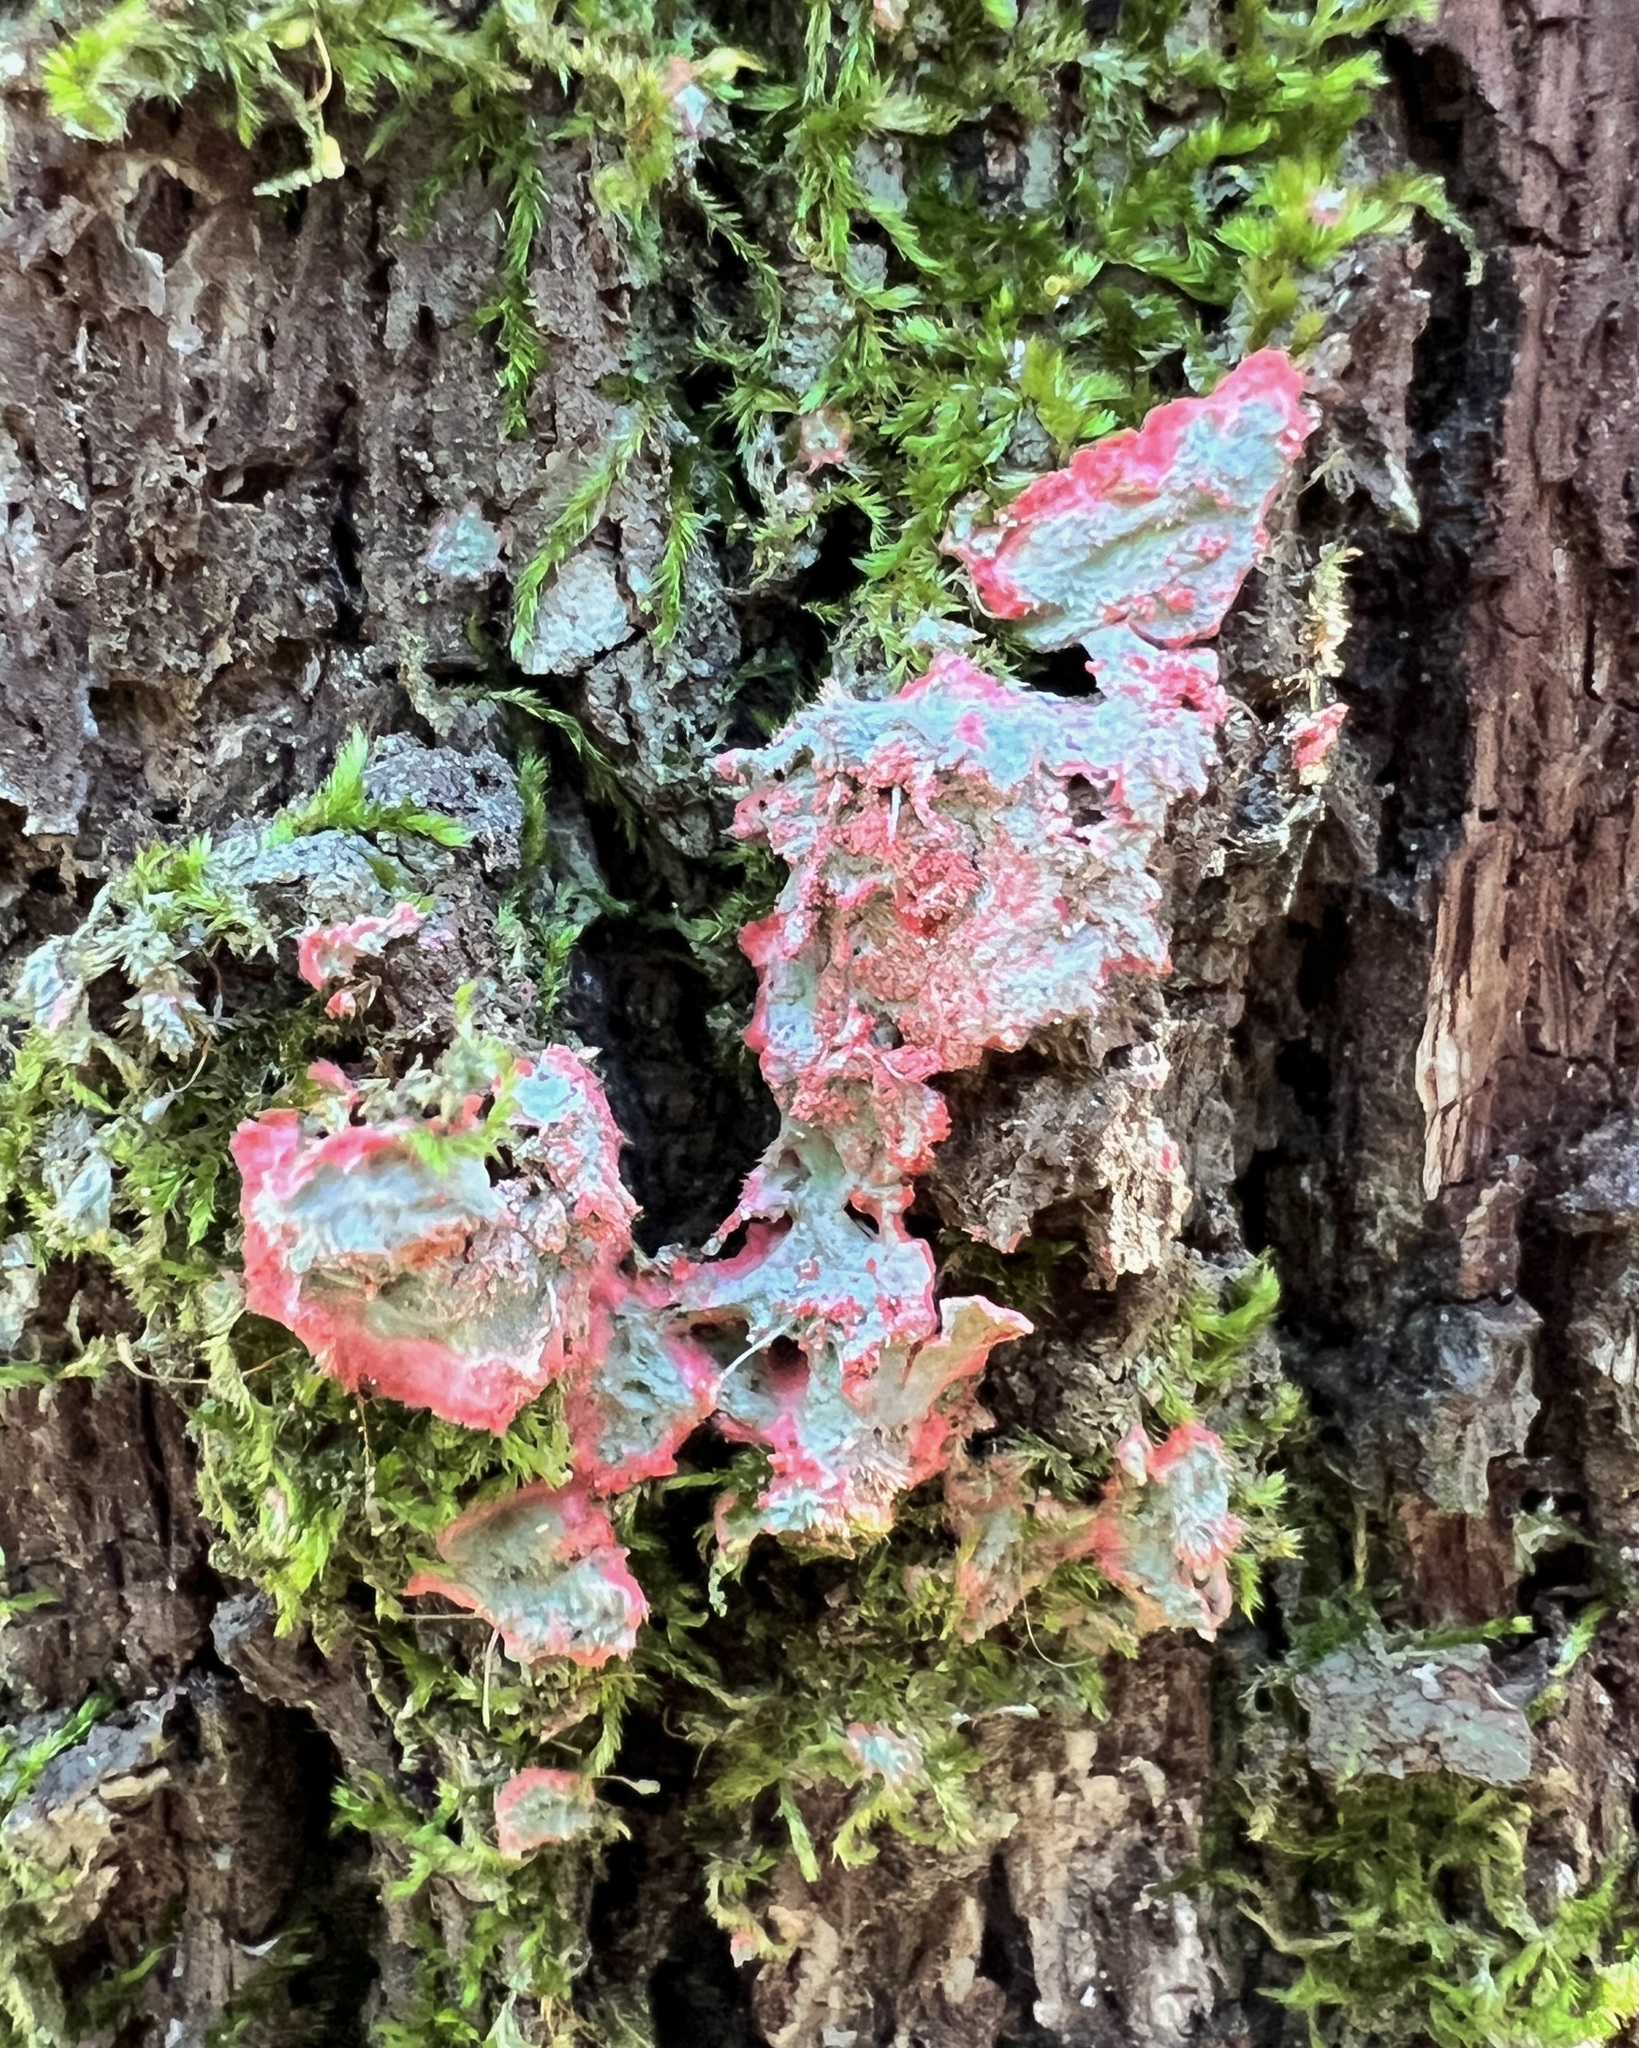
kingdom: Fungi
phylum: Ascomycota
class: Arthoniomycetes
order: Arthoniales
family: Arthoniaceae
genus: Herpothallon
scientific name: Herpothallon rubrocinctum
